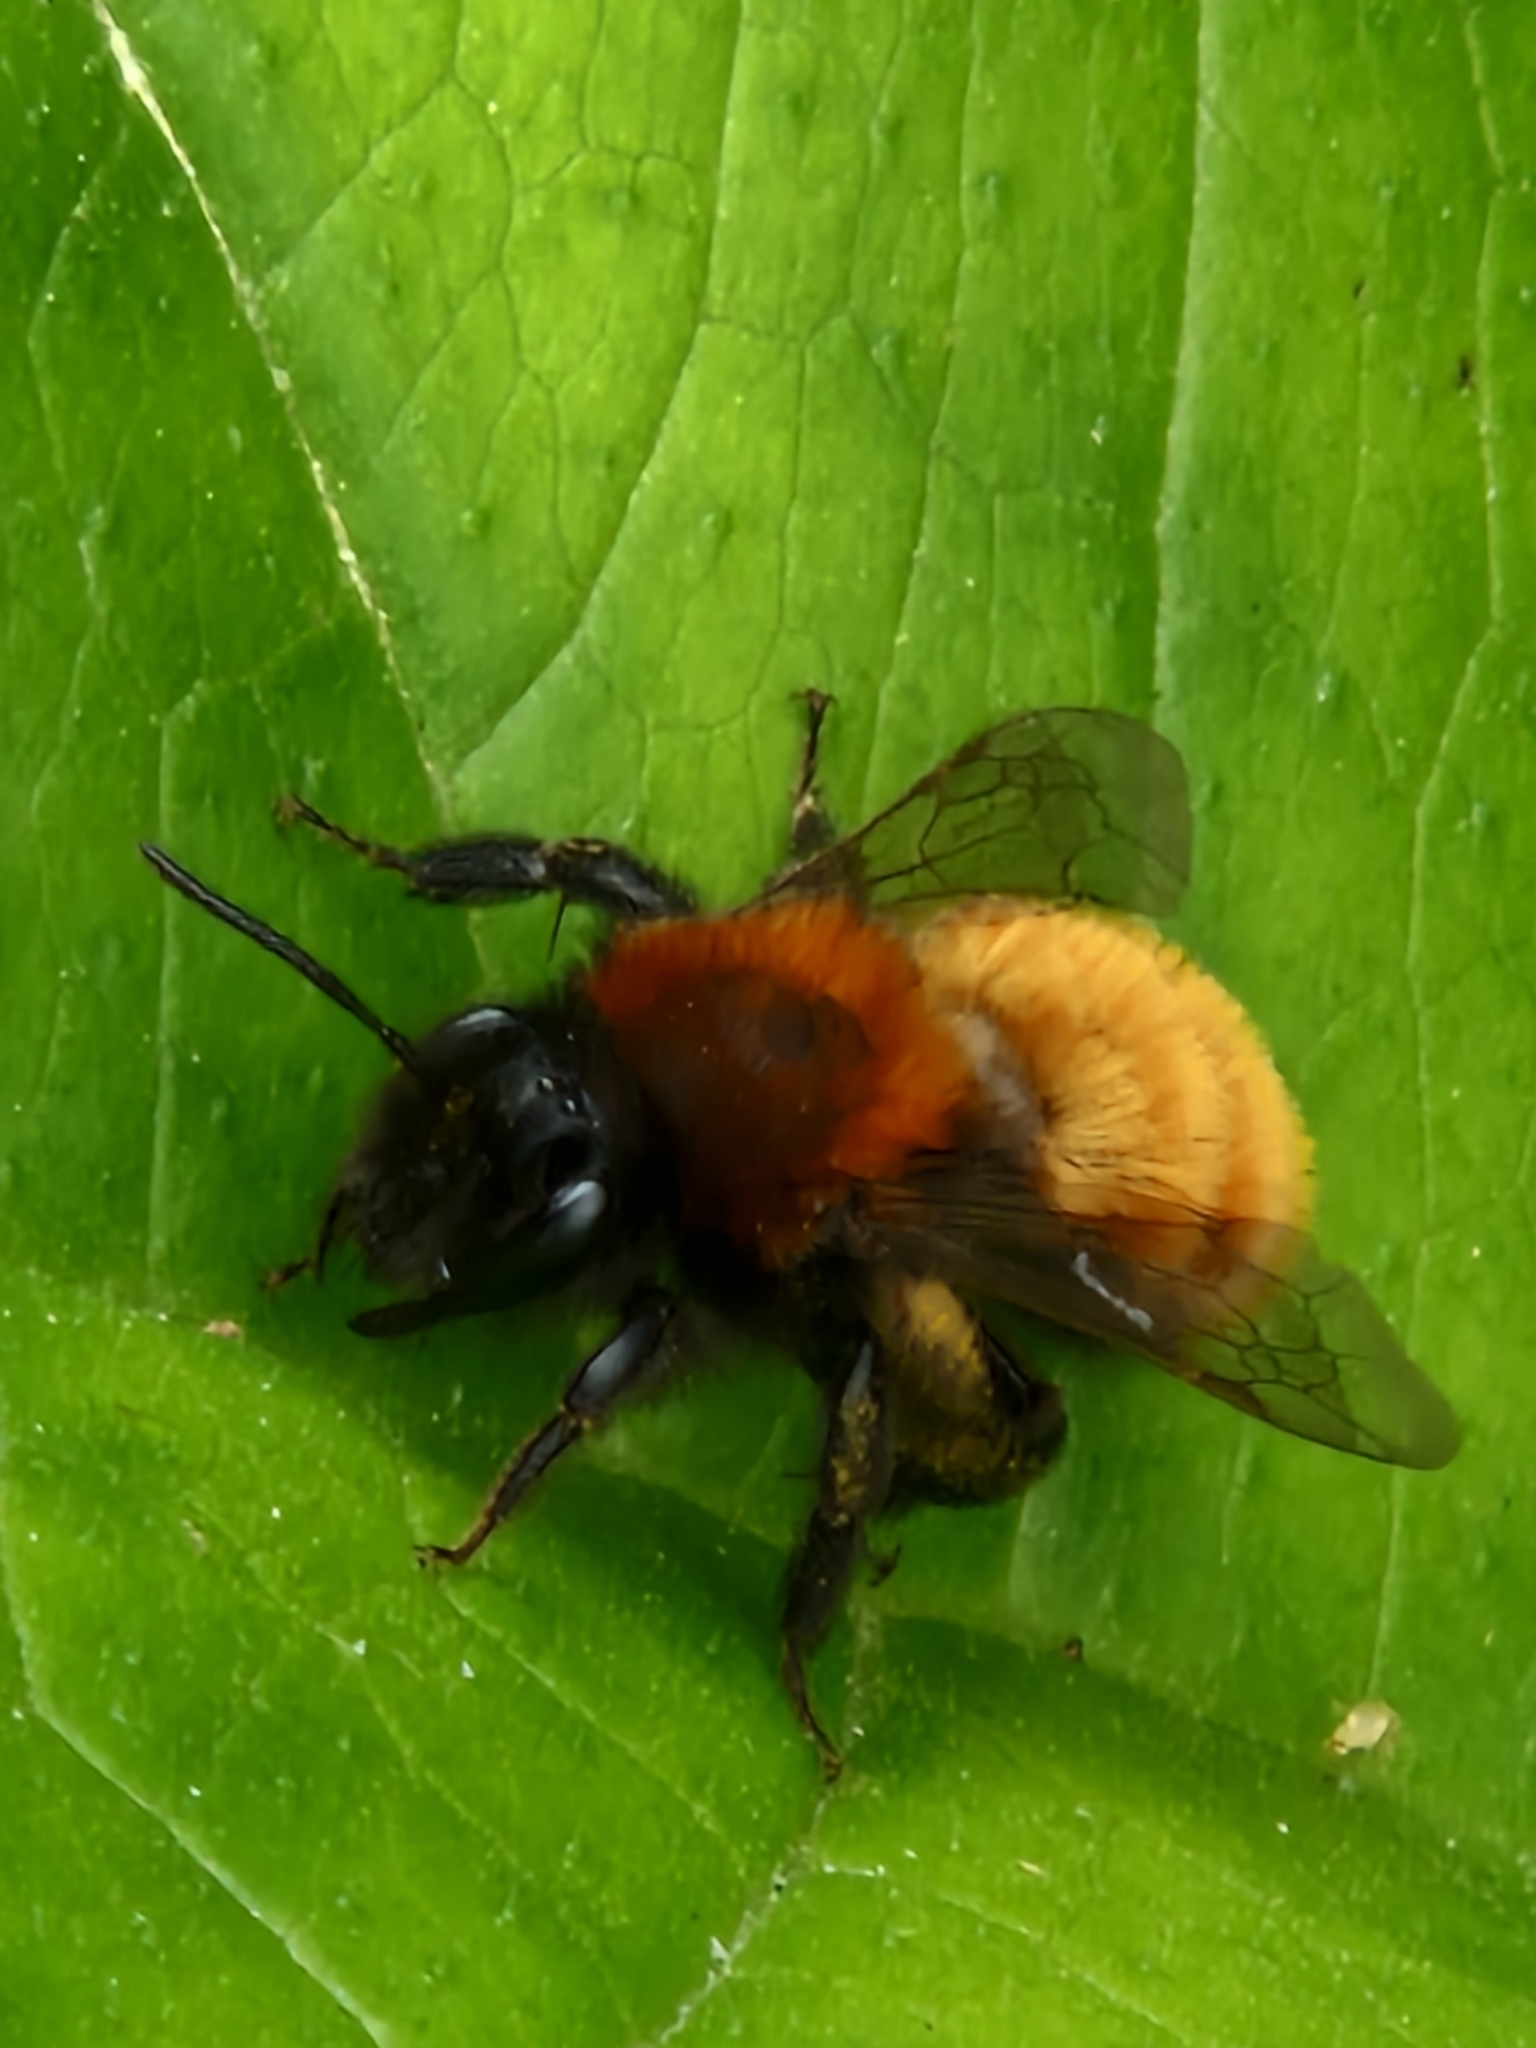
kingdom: Animalia
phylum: Arthropoda
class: Insecta
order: Hymenoptera
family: Andrenidae
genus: Andrena
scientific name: Andrena fulva
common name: Tawny mining bee
